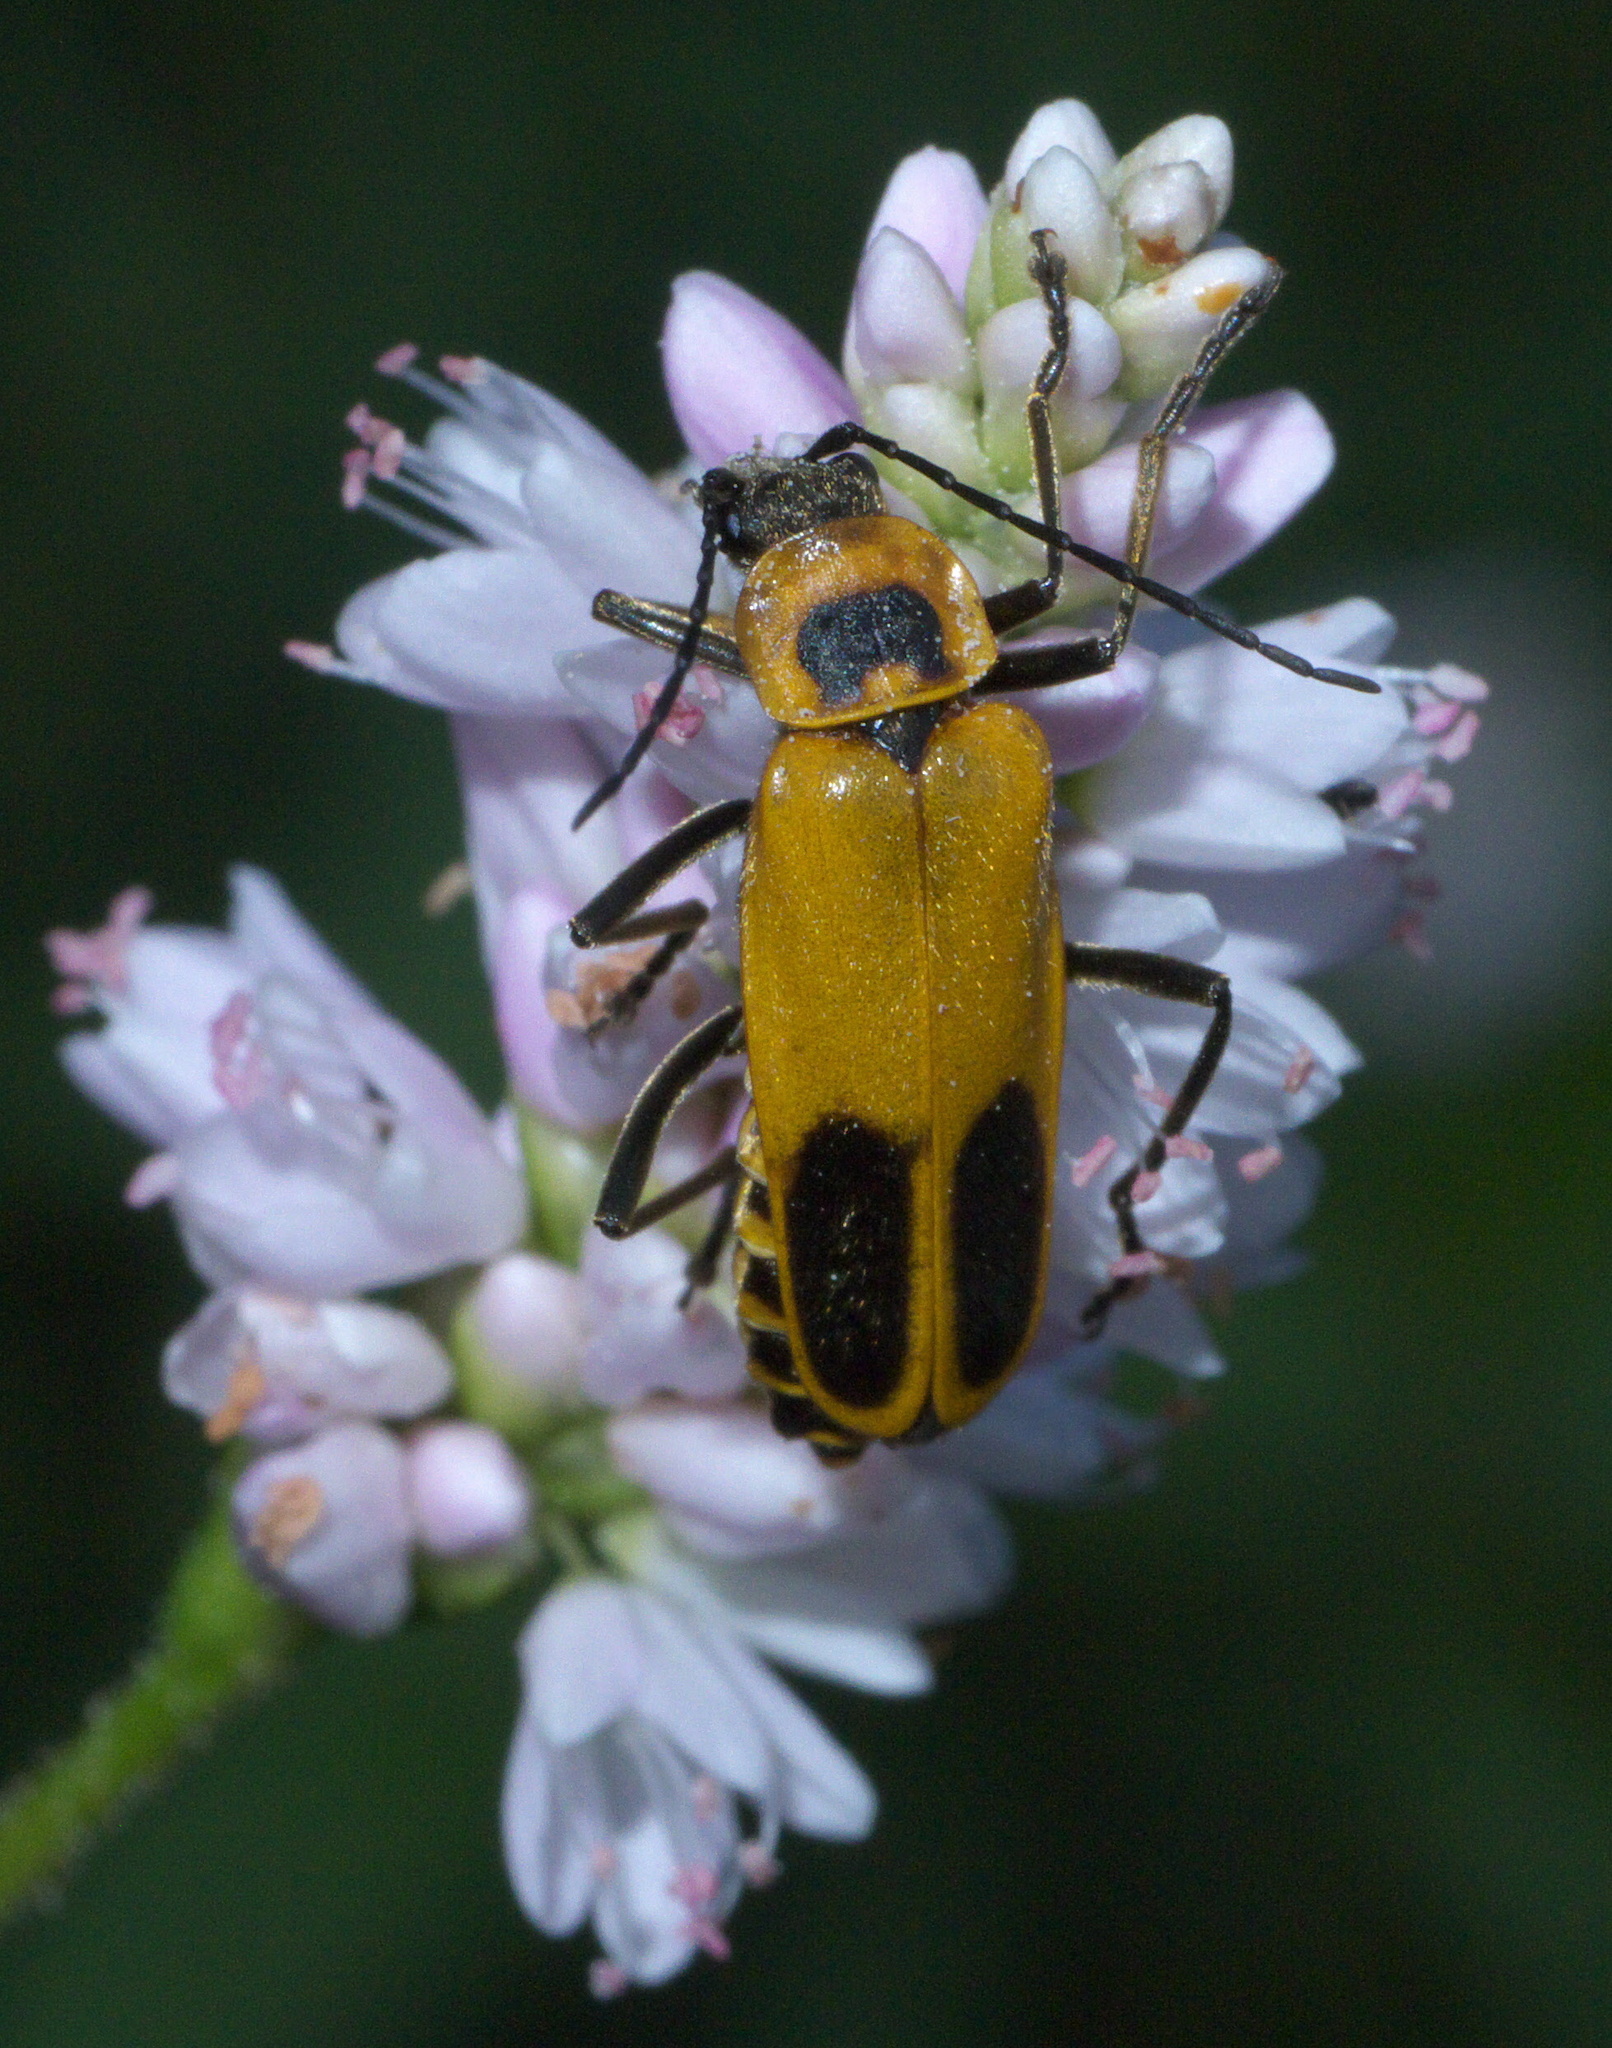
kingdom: Animalia
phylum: Arthropoda
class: Insecta
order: Coleoptera
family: Cantharidae
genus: Chauliognathus
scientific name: Chauliognathus pensylvanicus
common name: Goldenrod soldier beetle
